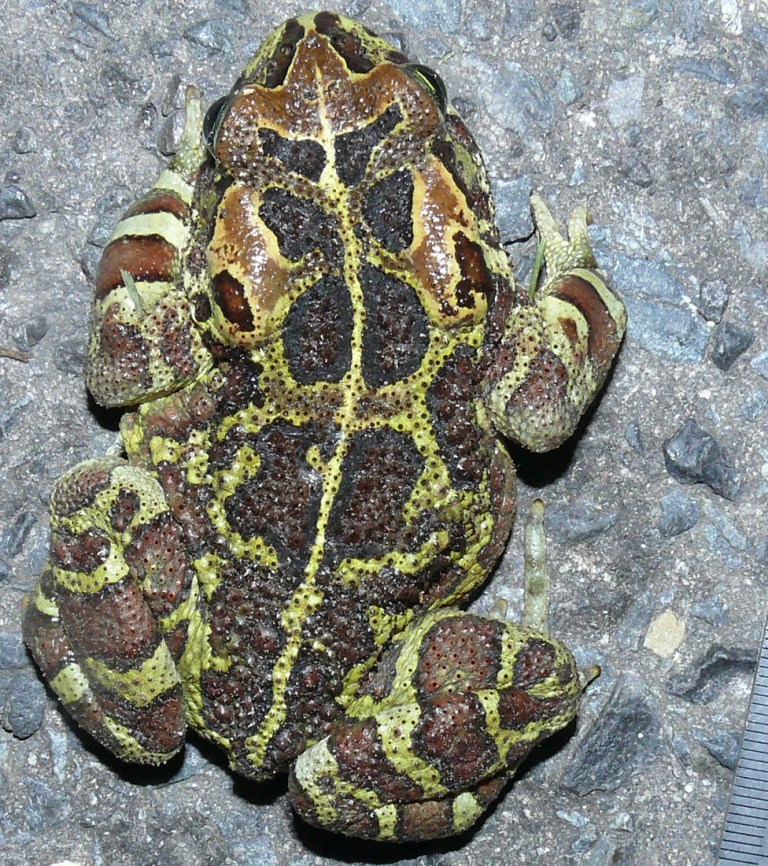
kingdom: Animalia
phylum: Chordata
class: Amphibia
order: Anura
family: Bufonidae
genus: Sclerophrys
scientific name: Sclerophrys pantherina
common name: Panther toad
